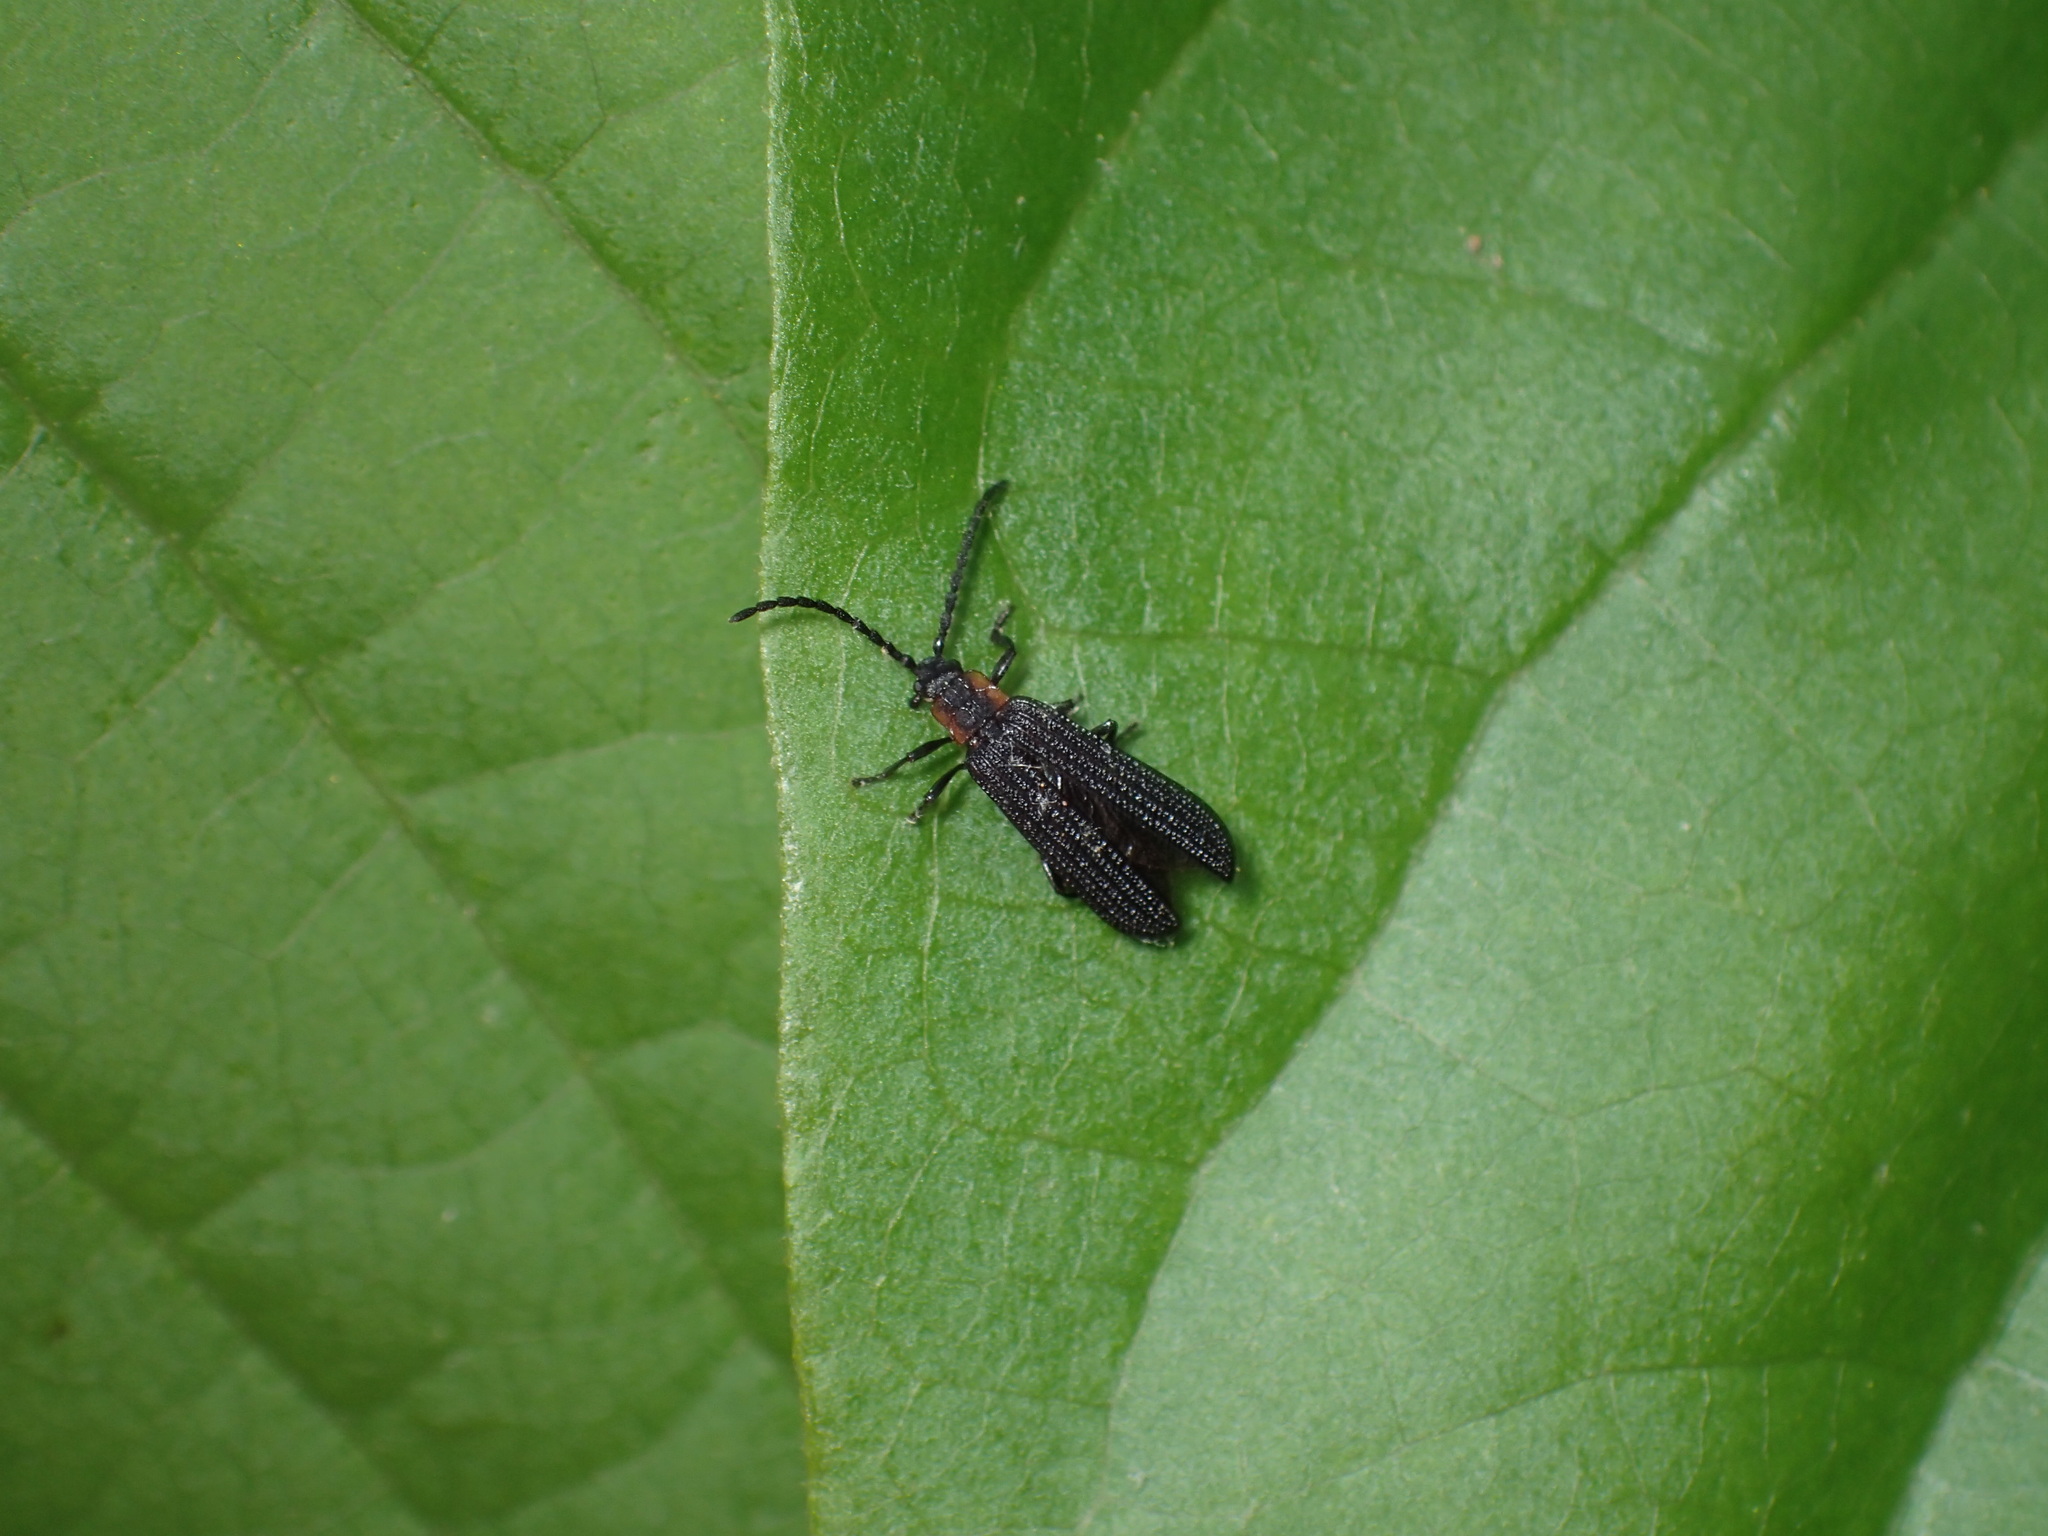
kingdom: Animalia
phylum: Arthropoda
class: Insecta
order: Coleoptera
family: Lycidae
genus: Erotides
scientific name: Erotides sculptilis
